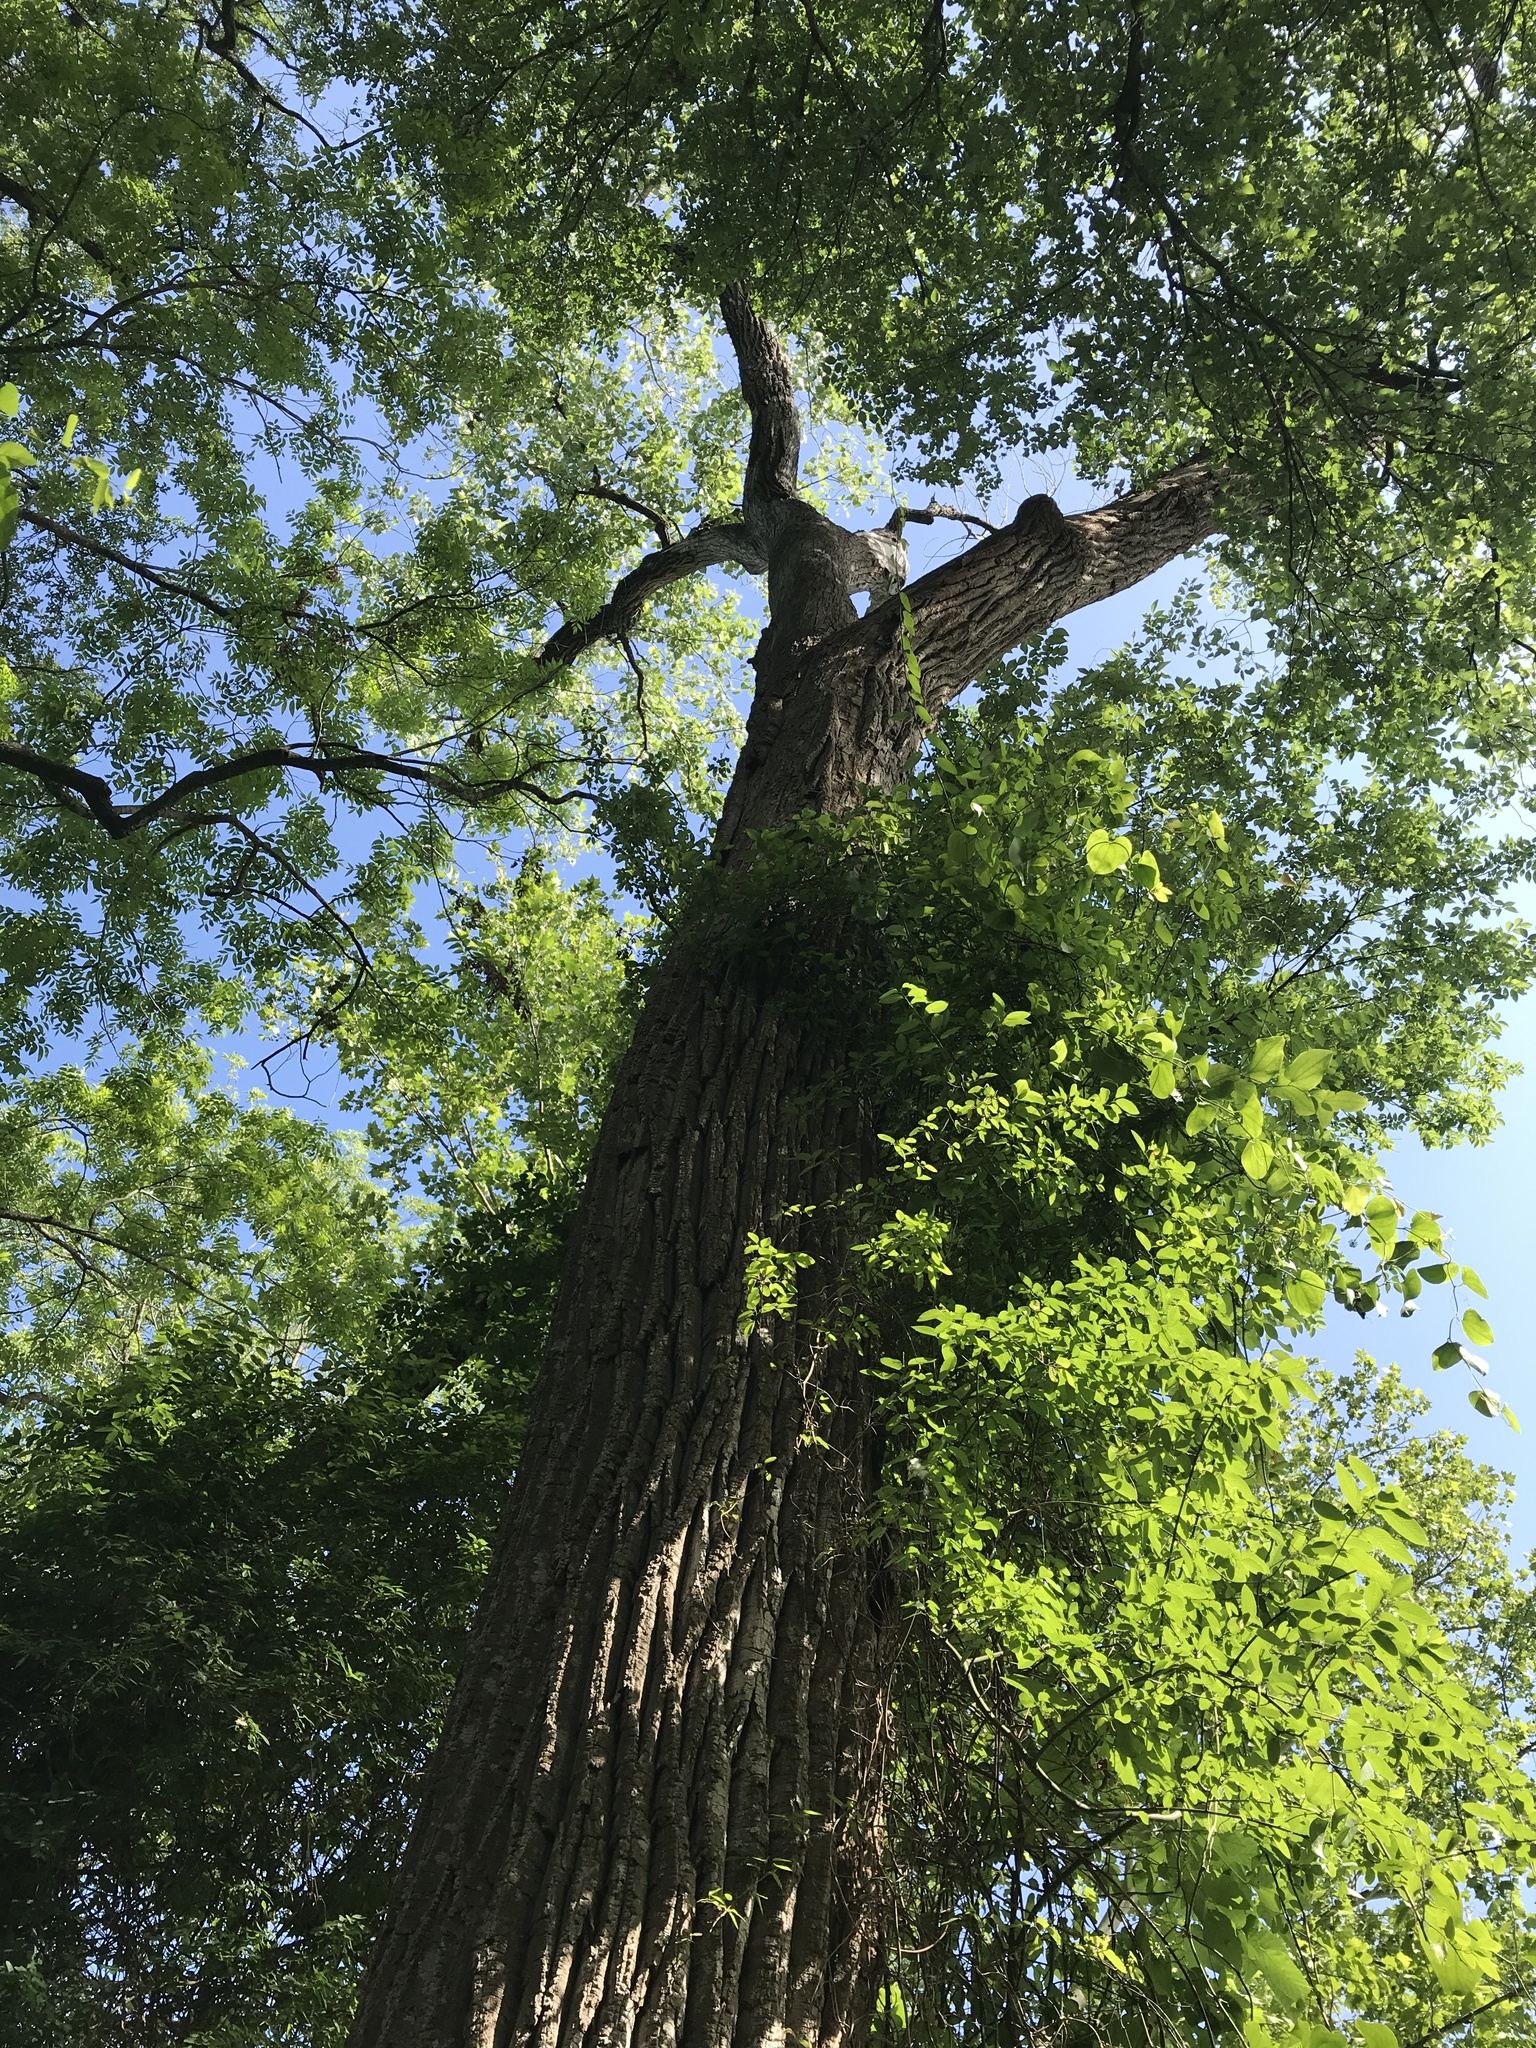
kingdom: Plantae
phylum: Tracheophyta
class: Magnoliopsida
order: Malpighiales
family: Salicaceae
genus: Populus
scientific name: Populus deltoides
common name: Eastern cottonwood
